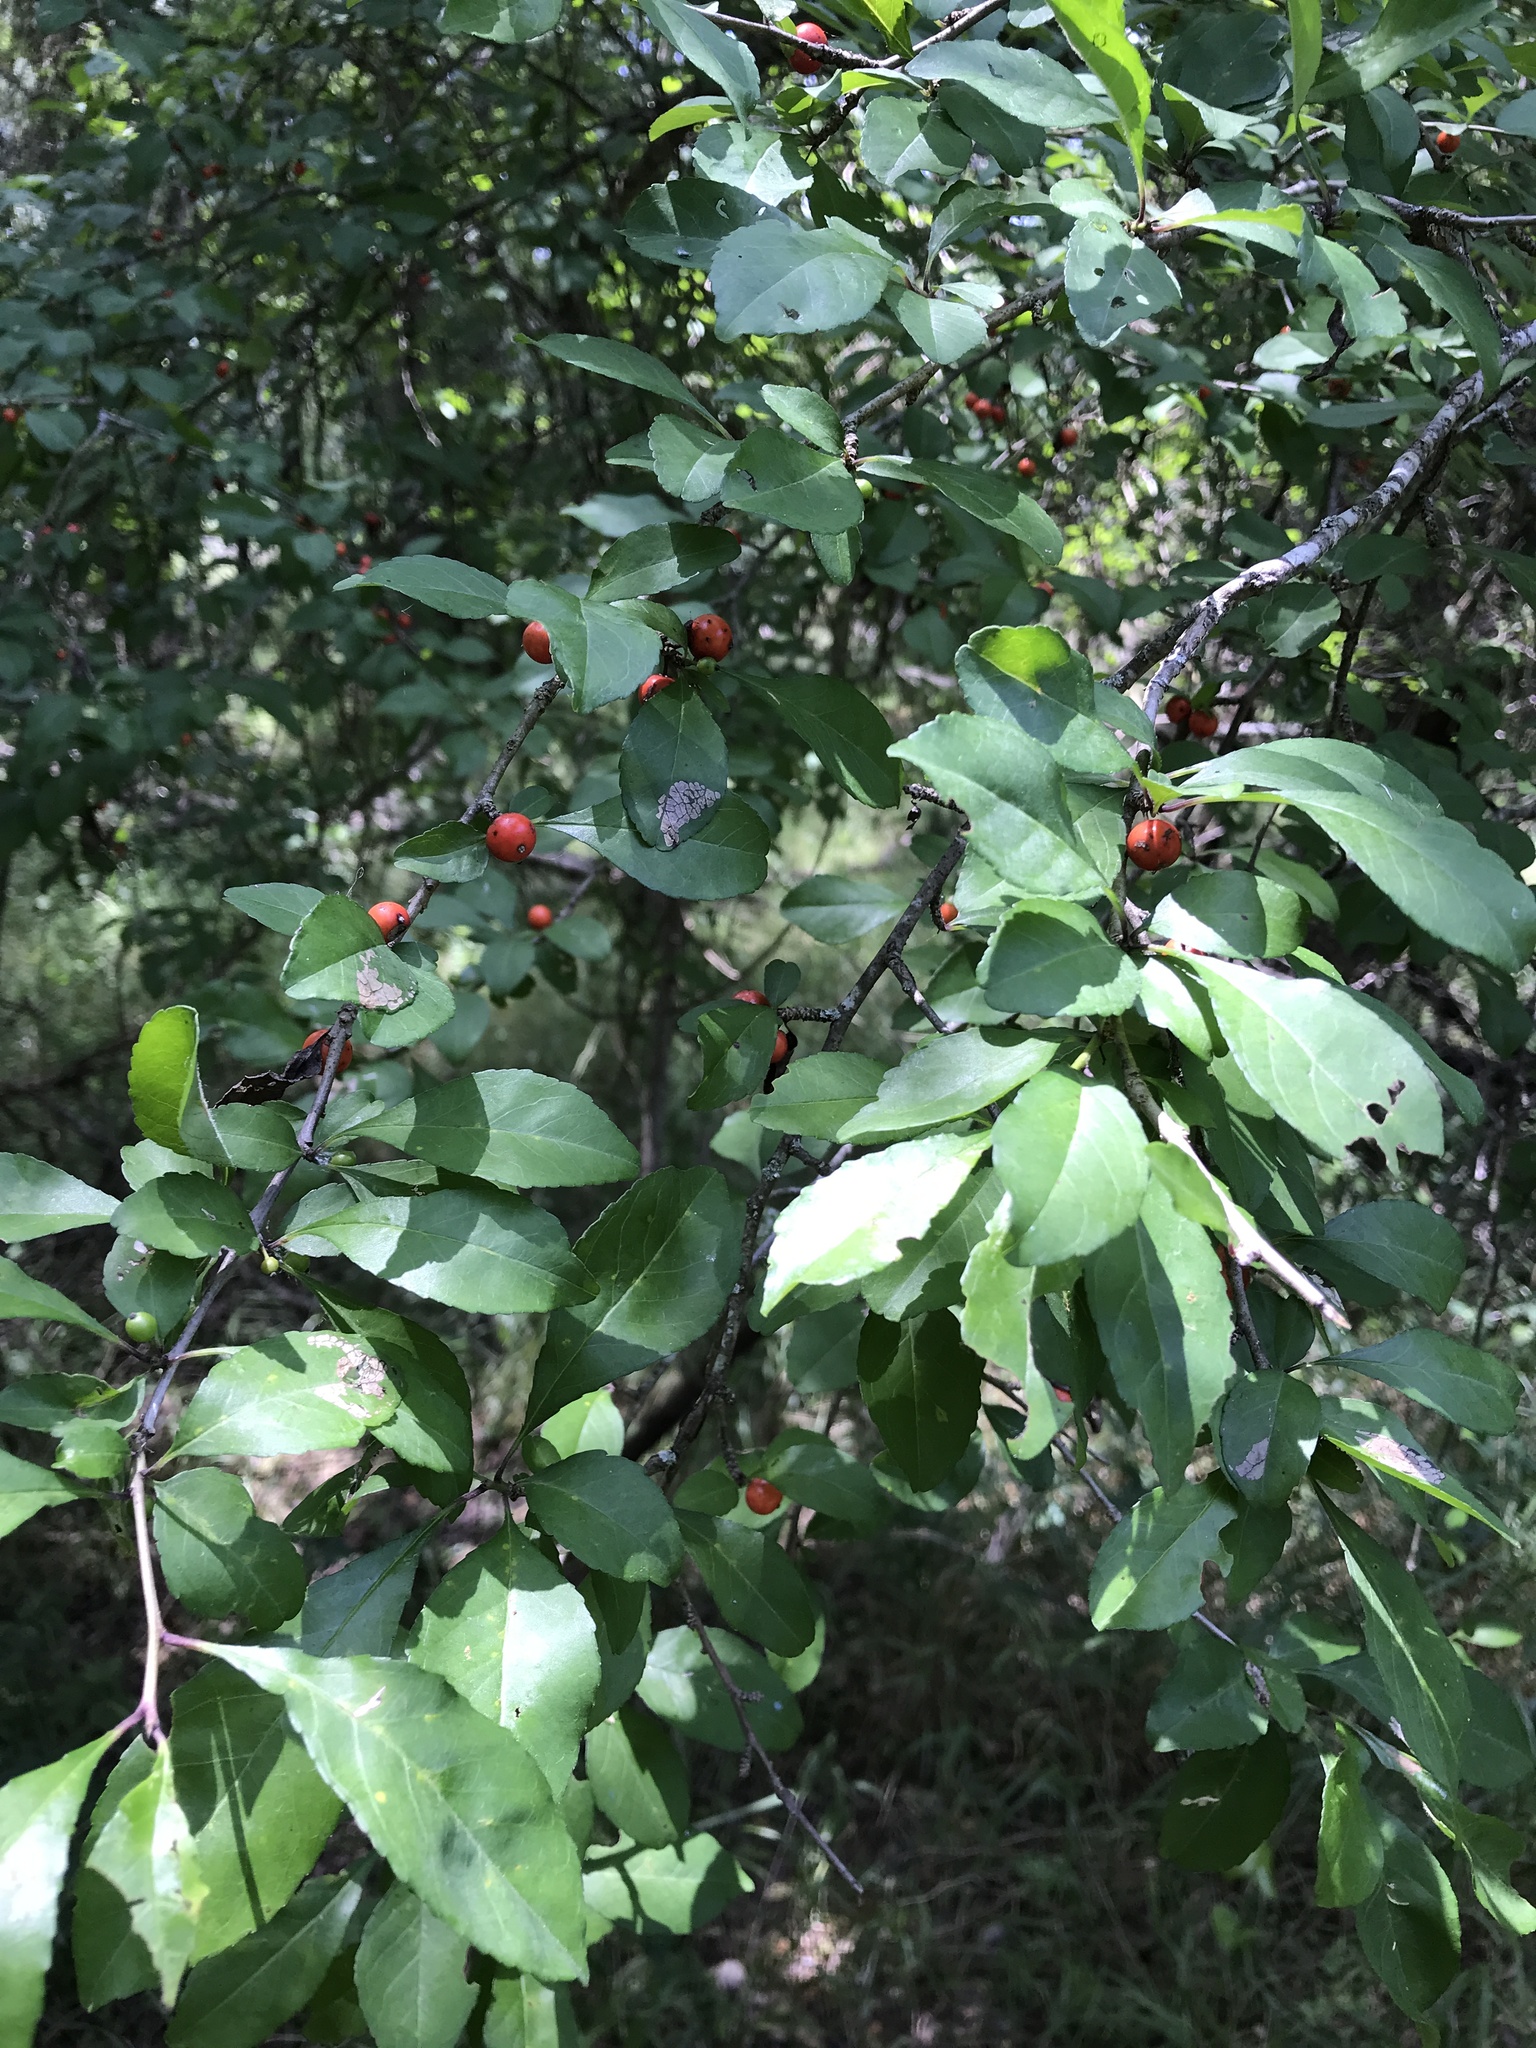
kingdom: Plantae
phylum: Tracheophyta
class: Magnoliopsida
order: Aquifoliales
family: Aquifoliaceae
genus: Ilex
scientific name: Ilex decidua
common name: Possum-haw
